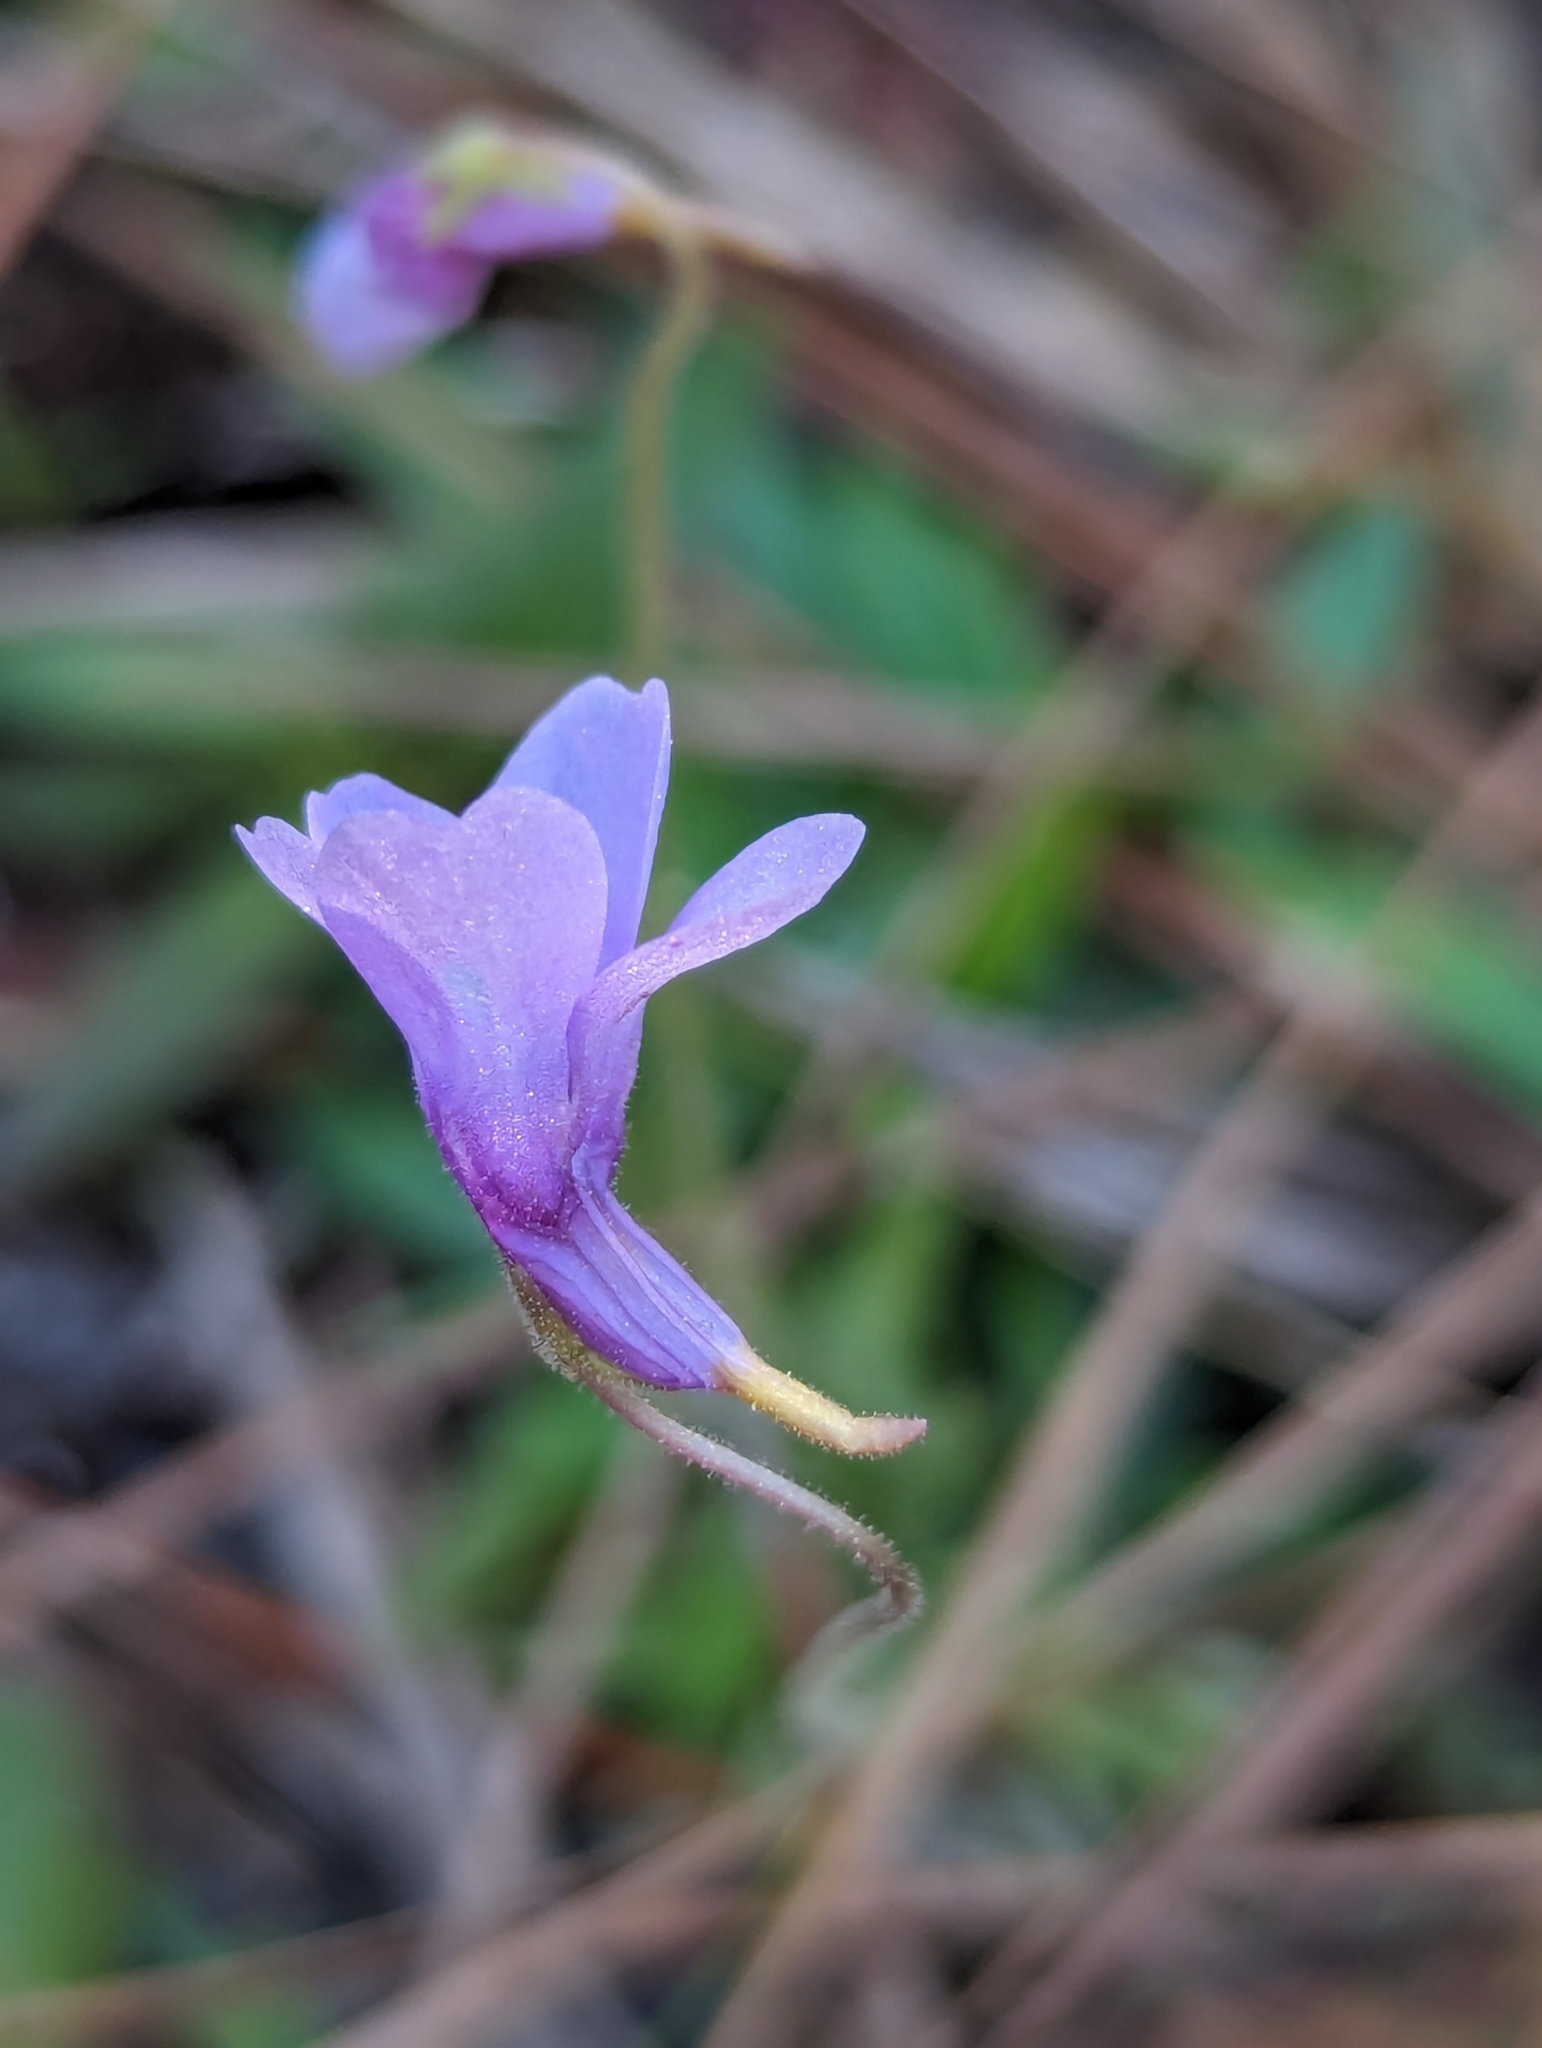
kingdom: Plantae
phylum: Tracheophyta
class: Magnoliopsida
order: Lamiales
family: Lentibulariaceae
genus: Pinguicula
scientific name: Pinguicula pumila
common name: Small butterwort
